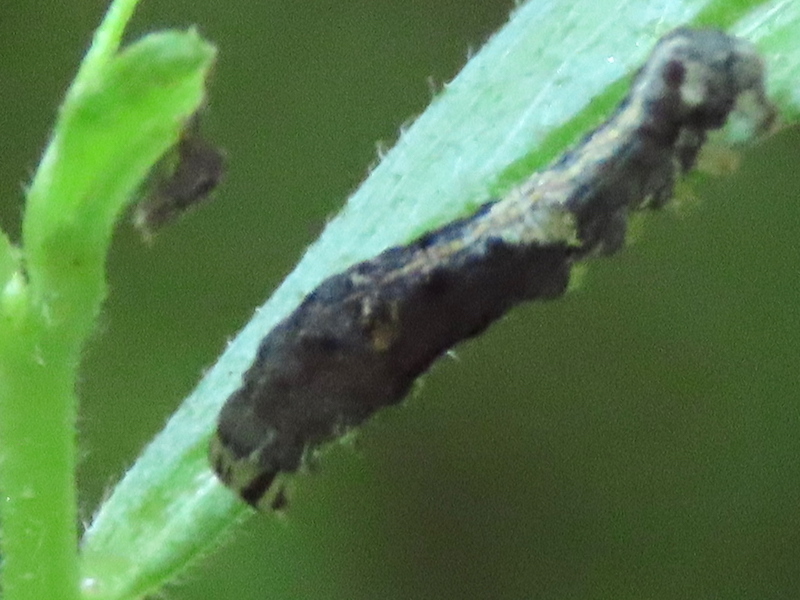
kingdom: Animalia
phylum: Arthropoda
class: Insecta
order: Lepidoptera
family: Noctuidae
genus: Elaphria
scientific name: Elaphria versicolor
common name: Fir harlequin
